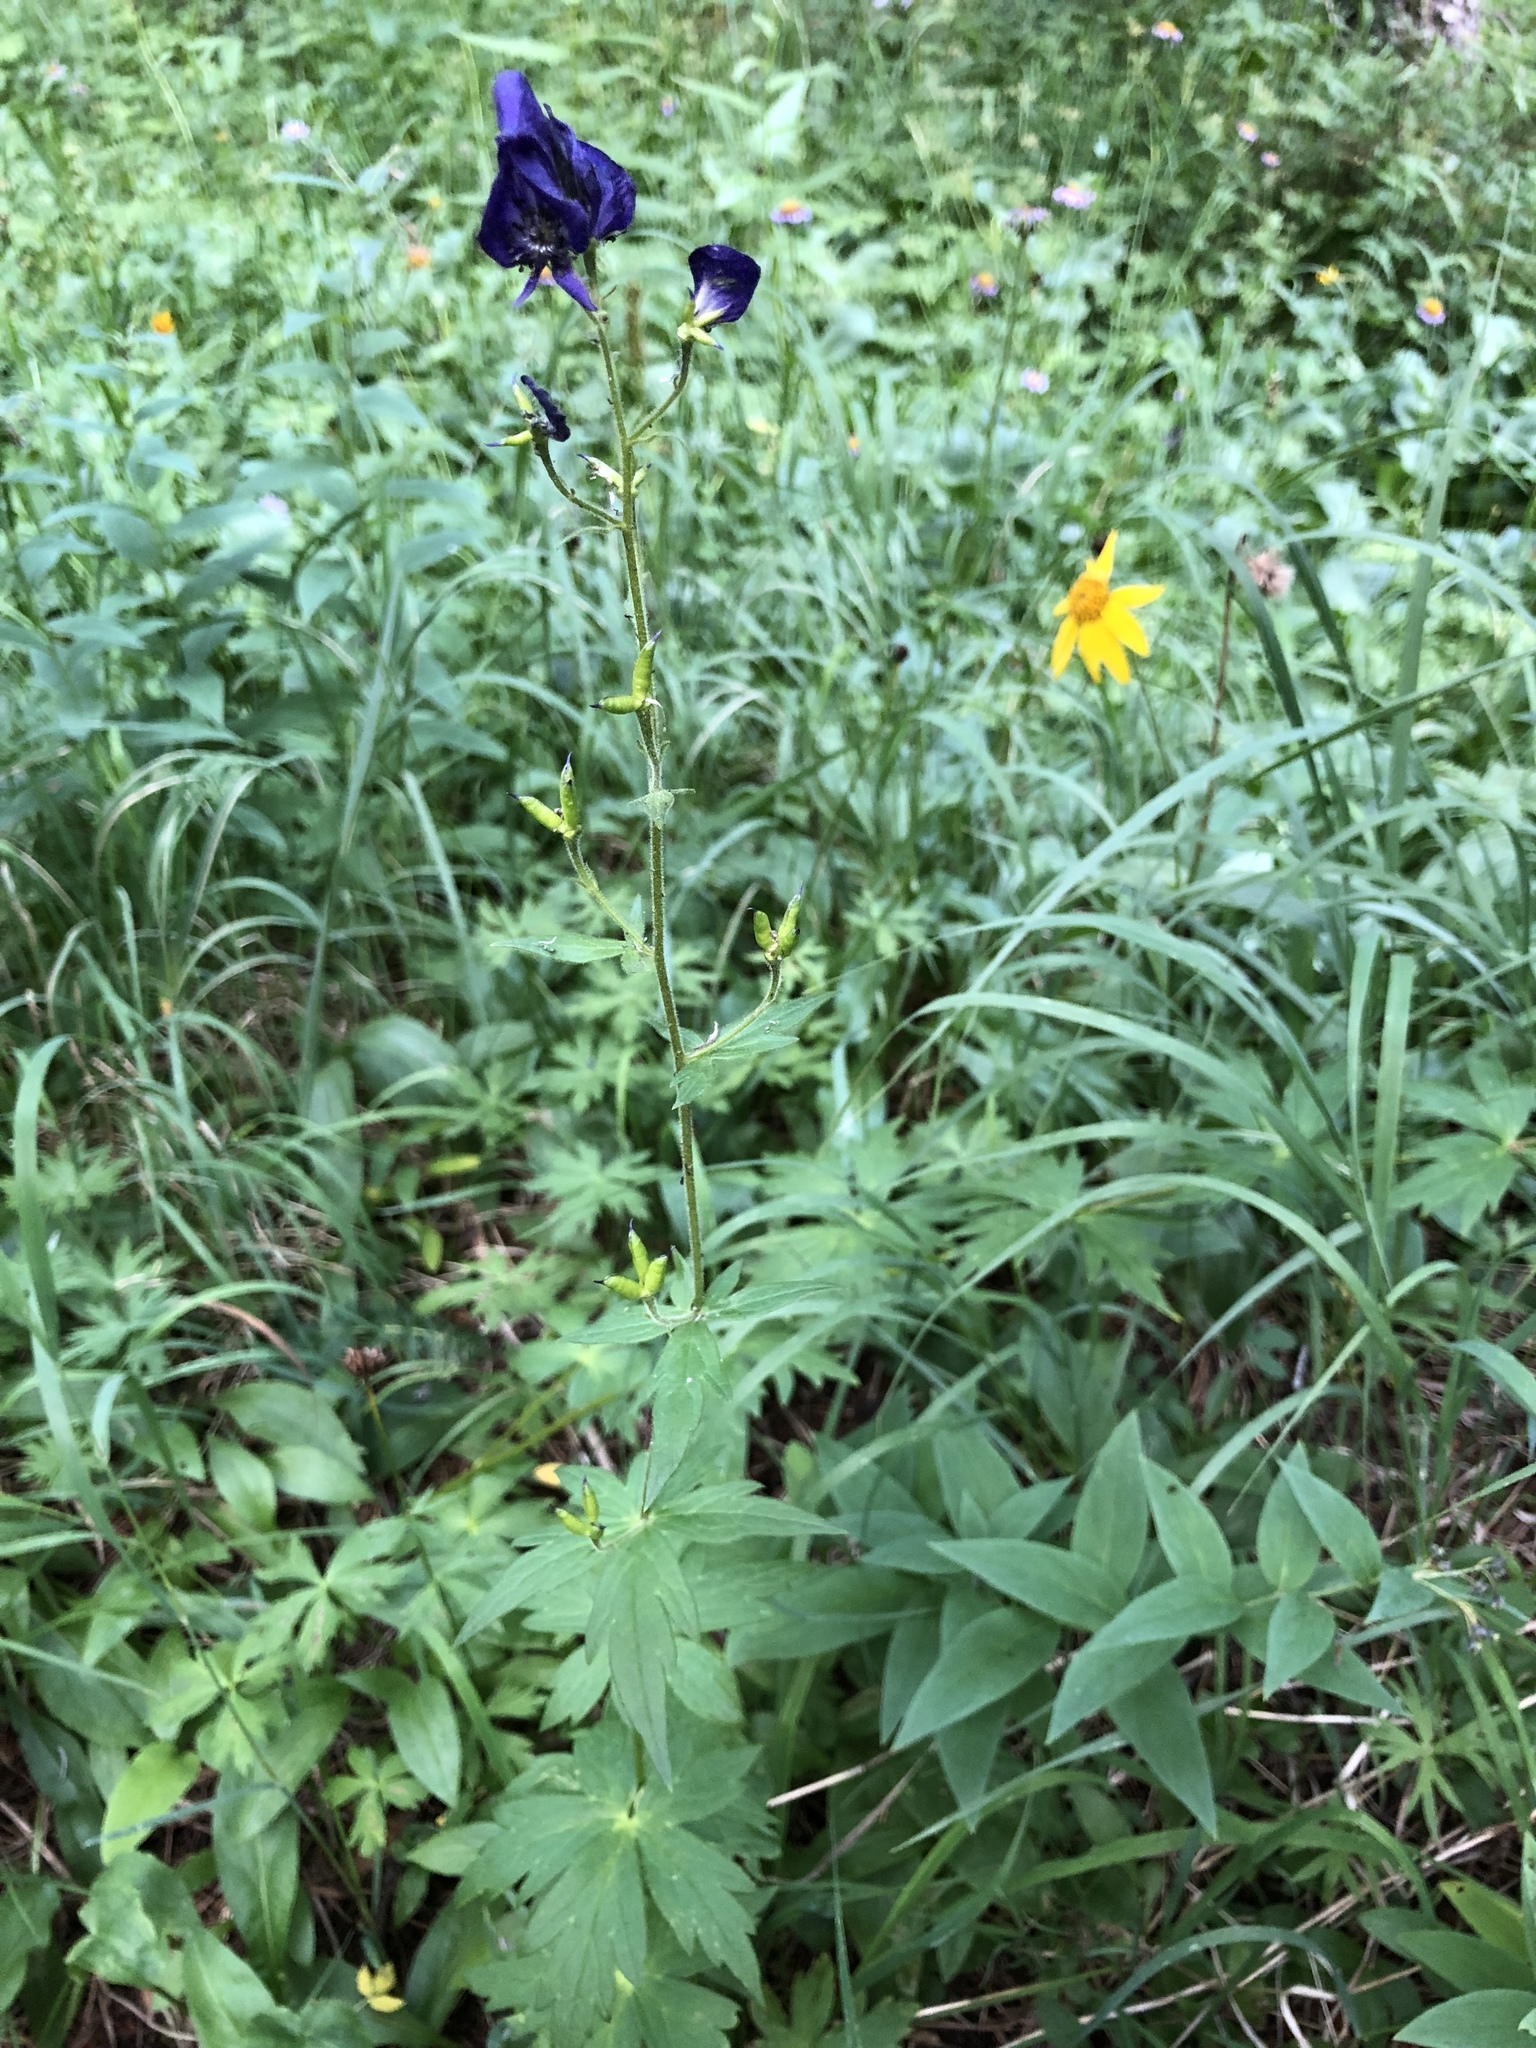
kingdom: Plantae
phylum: Tracheophyta
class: Magnoliopsida
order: Ranunculales
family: Ranunculaceae
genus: Aconitum
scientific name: Aconitum columbianum
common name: Columbia aconite
